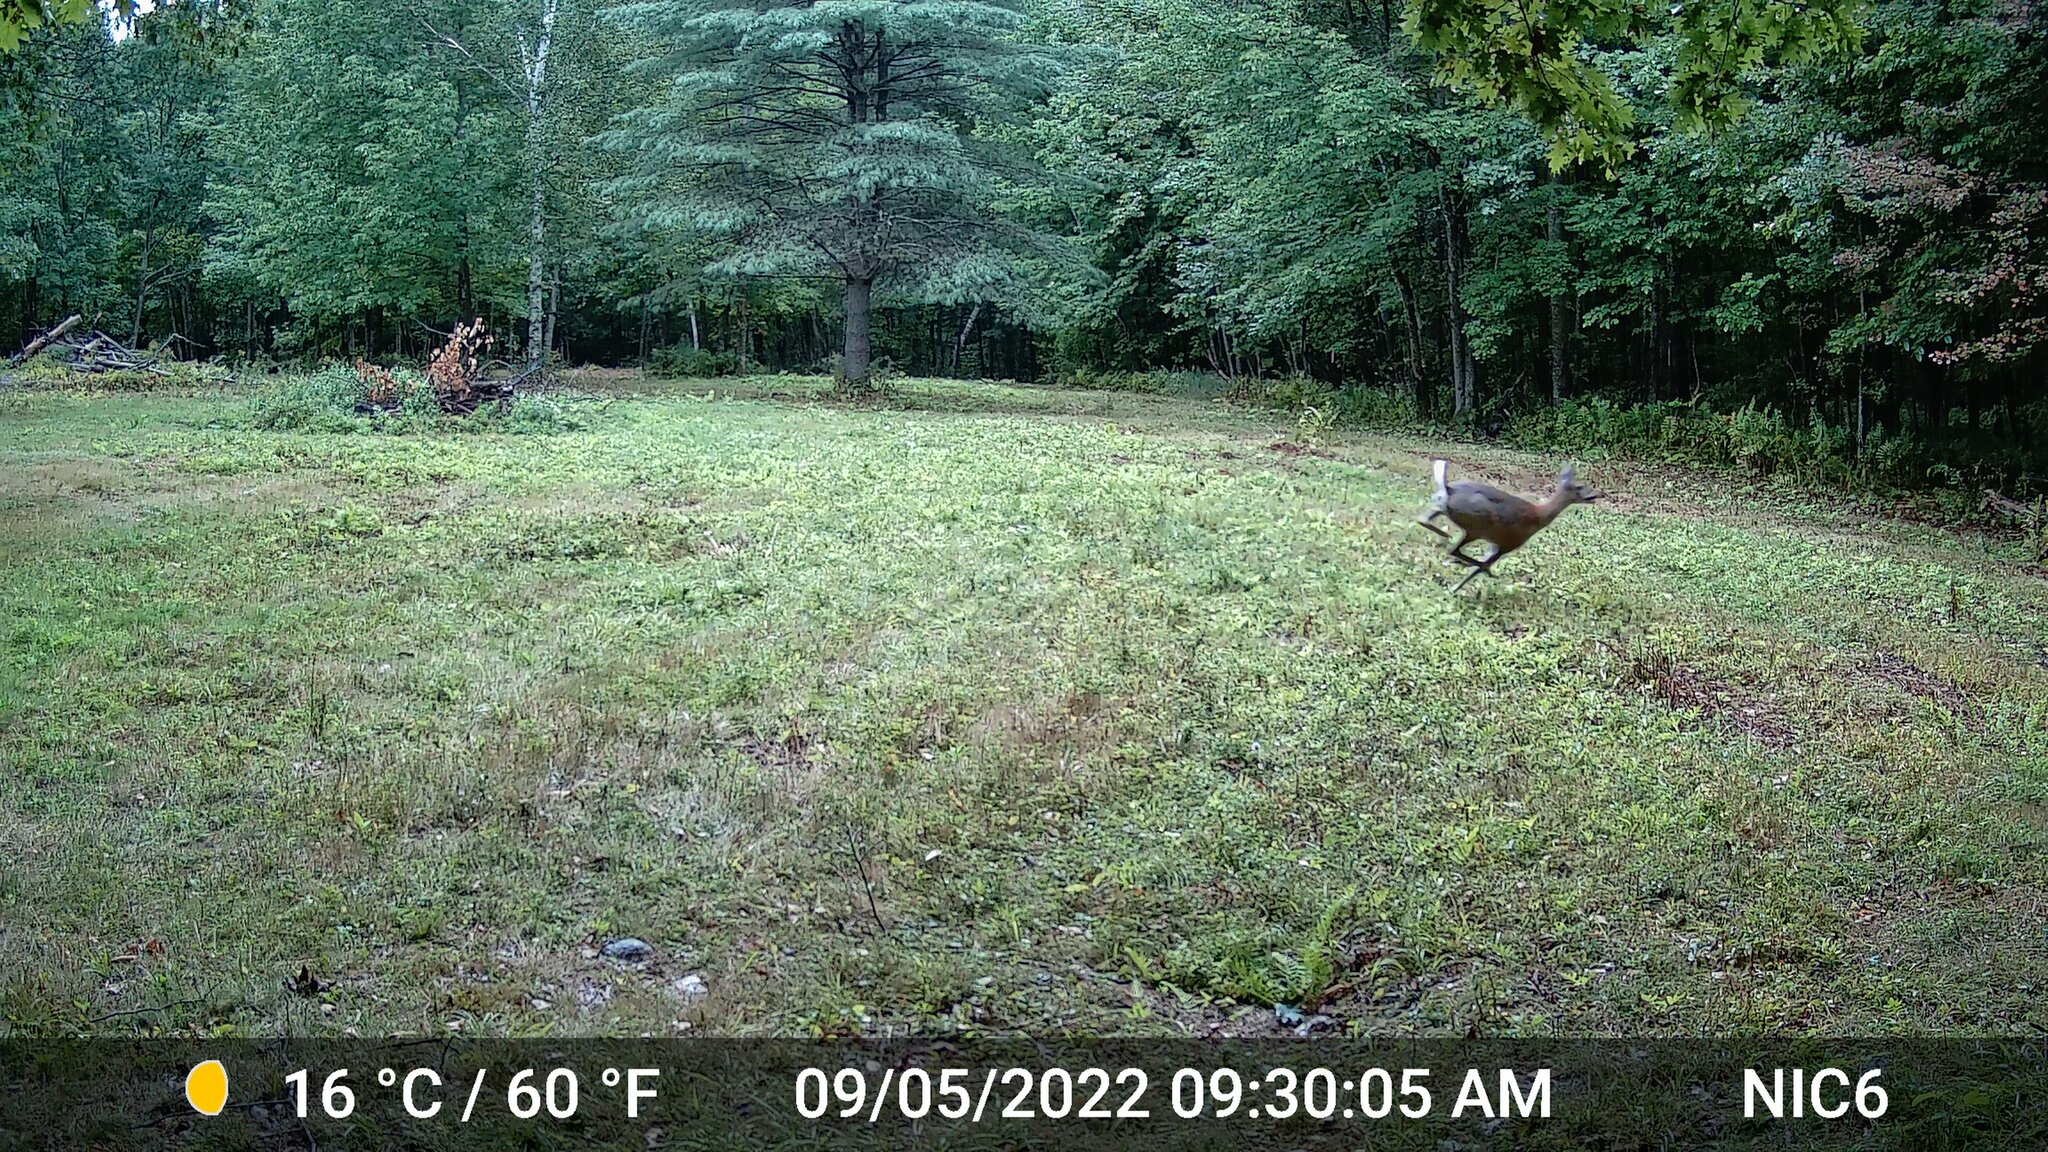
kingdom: Animalia
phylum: Chordata
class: Mammalia
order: Artiodactyla
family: Cervidae
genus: Odocoileus
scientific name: Odocoileus virginianus
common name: White-tailed deer
